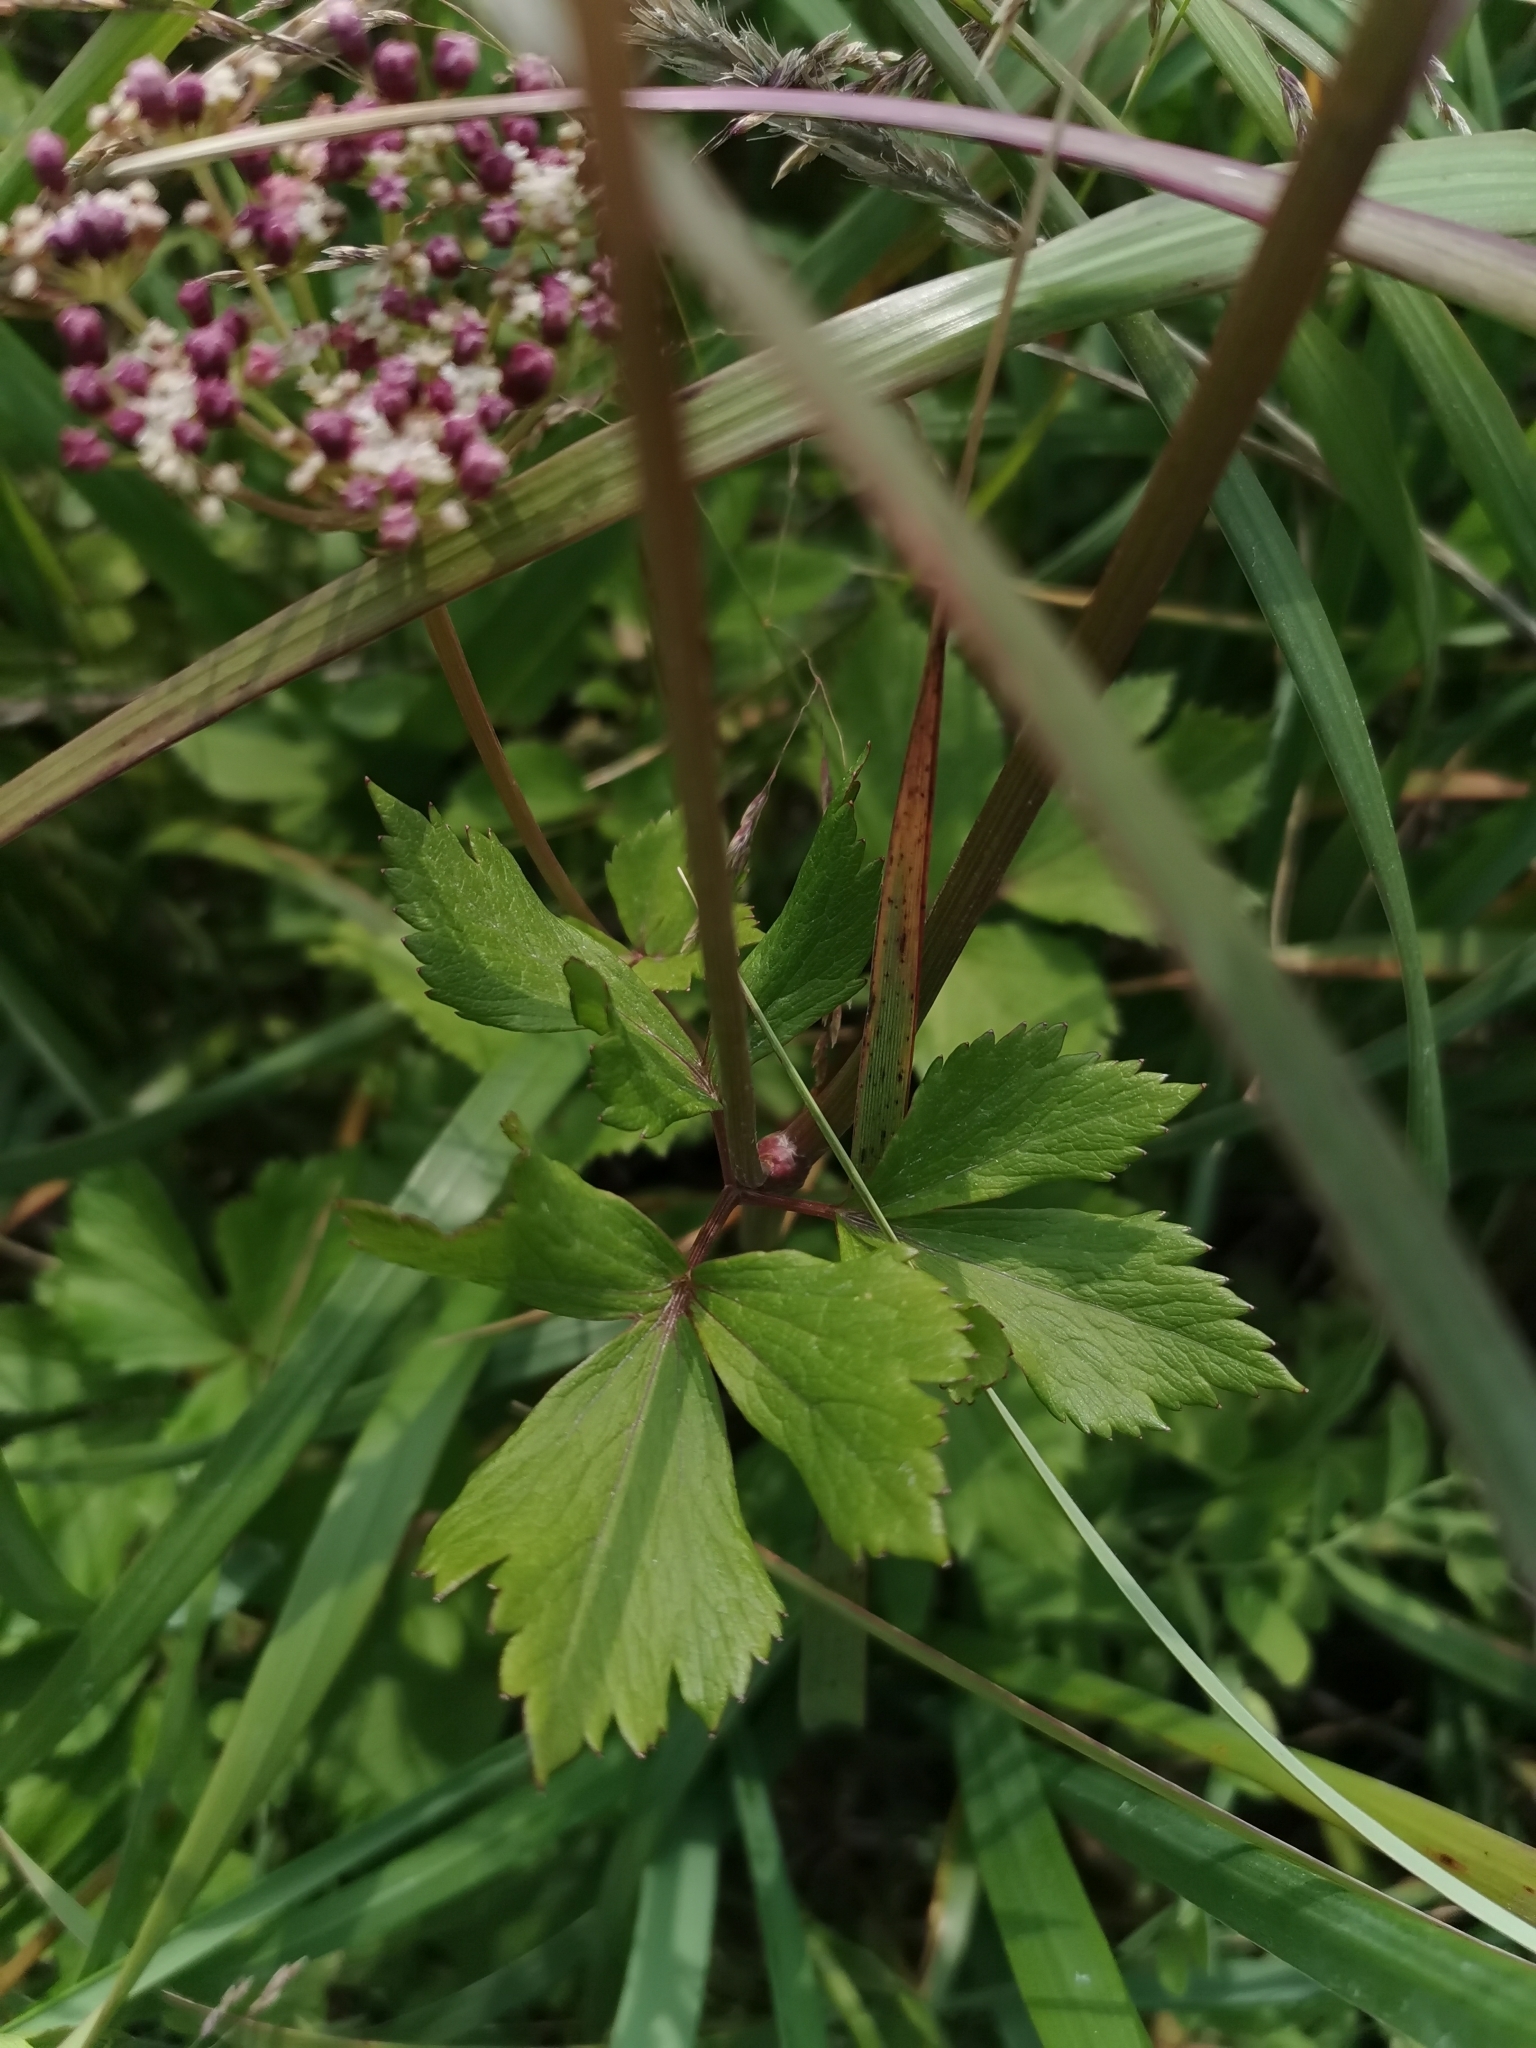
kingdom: Plantae
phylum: Tracheophyta
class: Magnoliopsida
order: Apiales
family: Apiaceae
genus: Ligusticum
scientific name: Ligusticum scothicum
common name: Beach lovage
